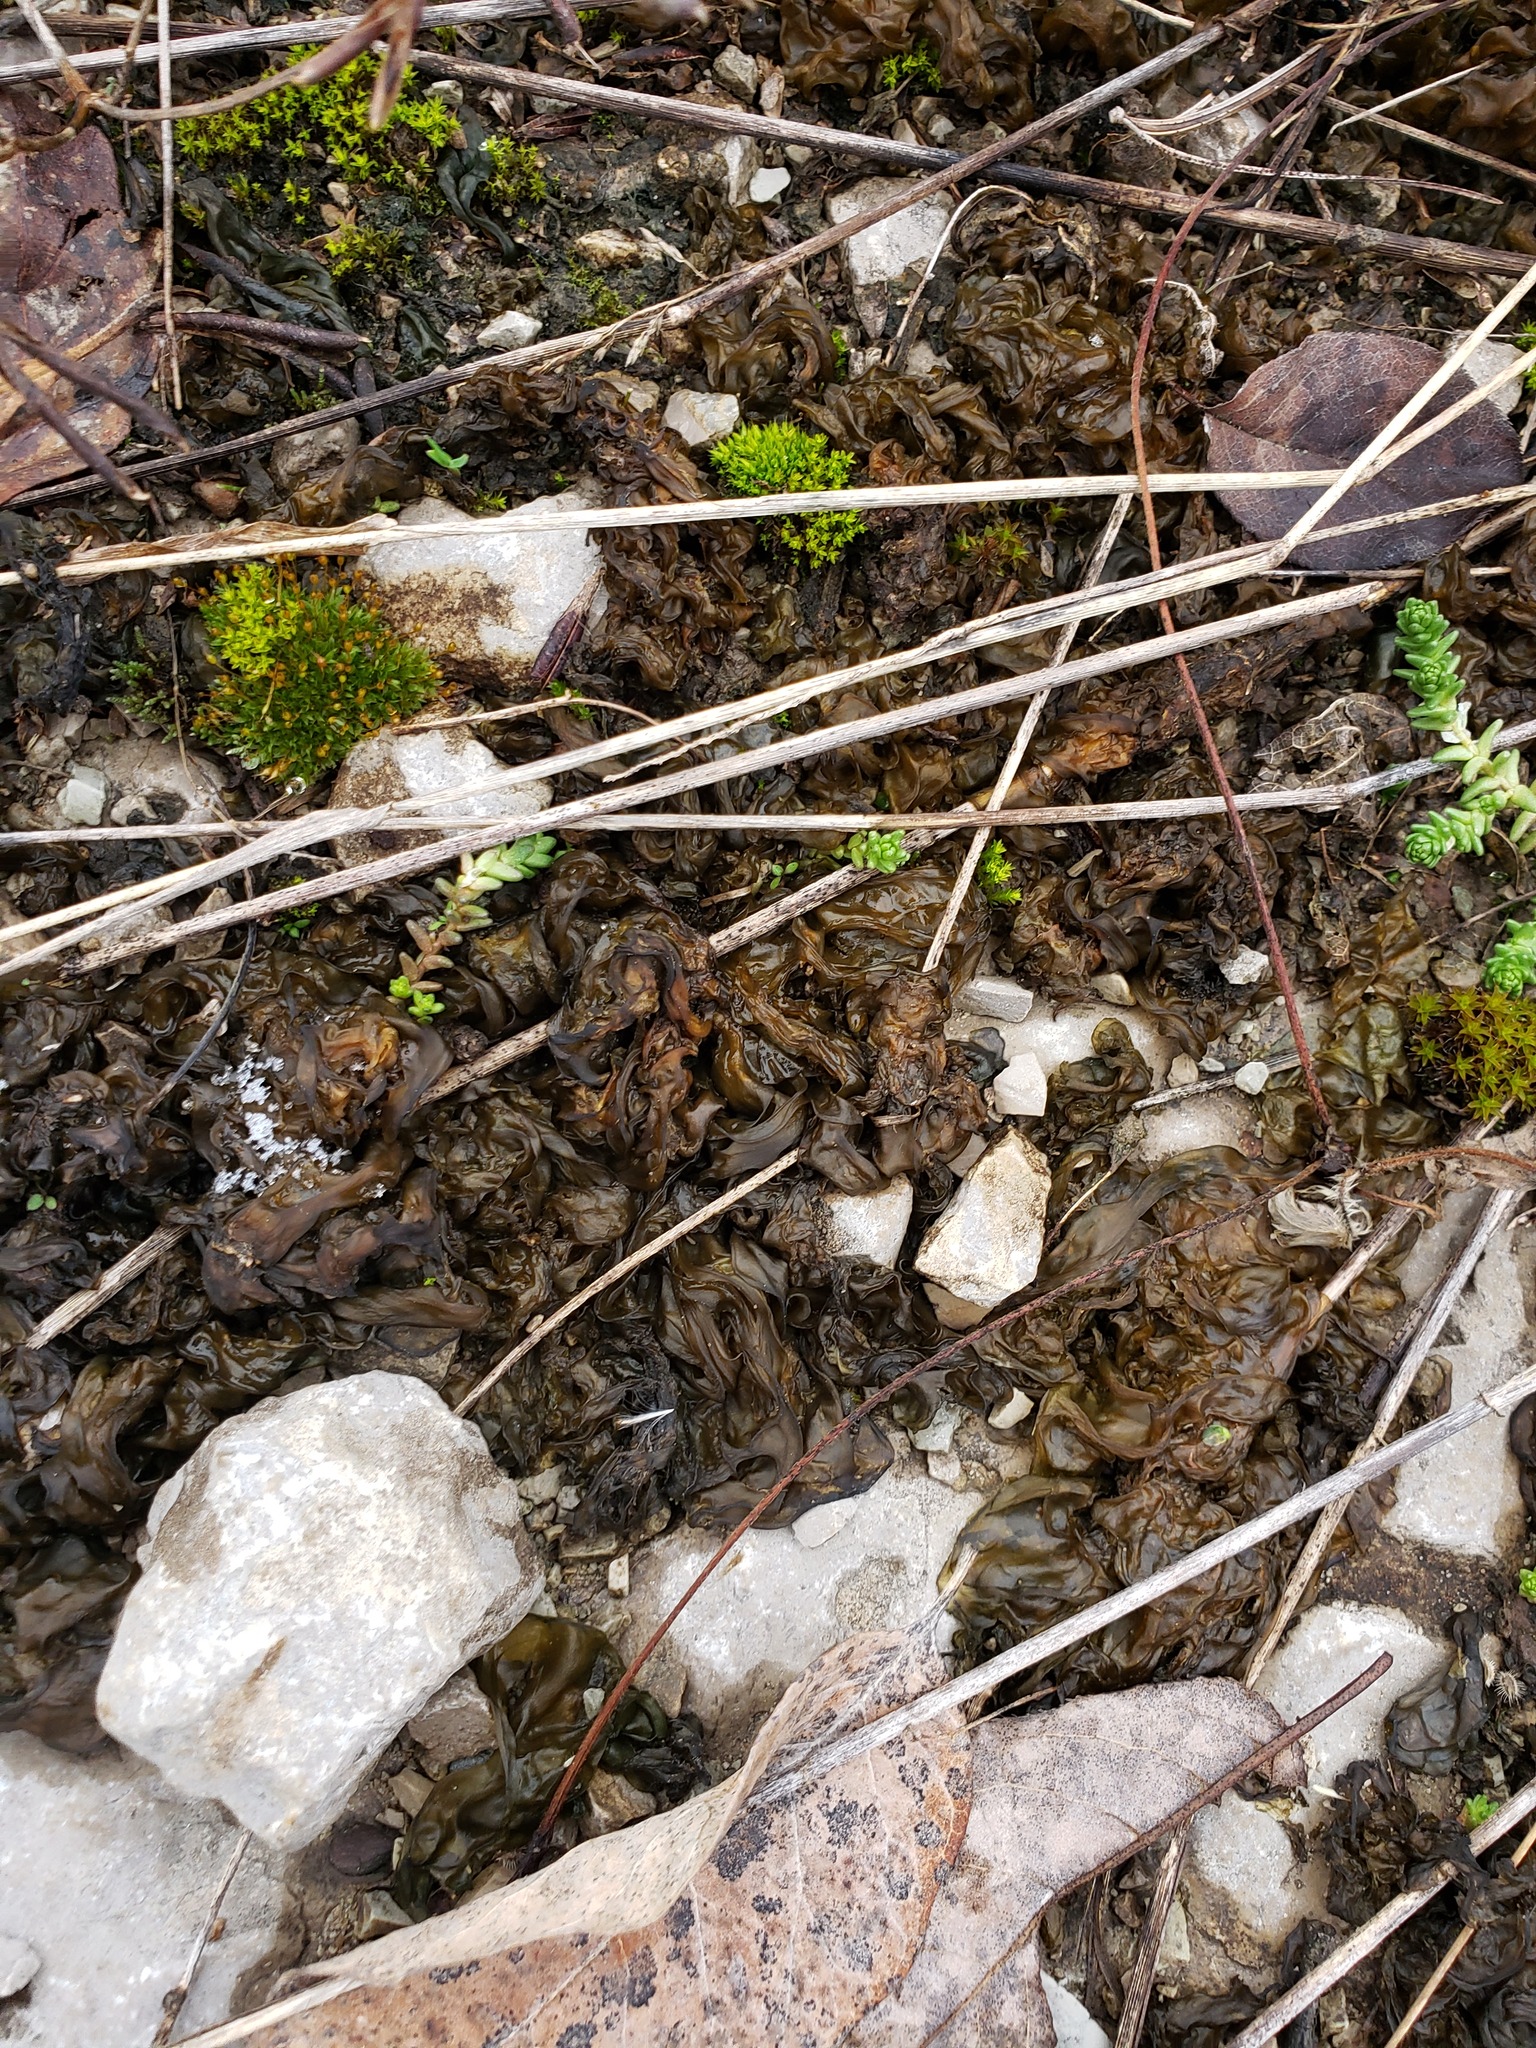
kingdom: Bacteria
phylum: Cyanobacteria
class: Cyanobacteriia
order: Cyanobacteriales
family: Nostocaceae
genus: Nostoc
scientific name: Nostoc commune
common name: Star jelly
